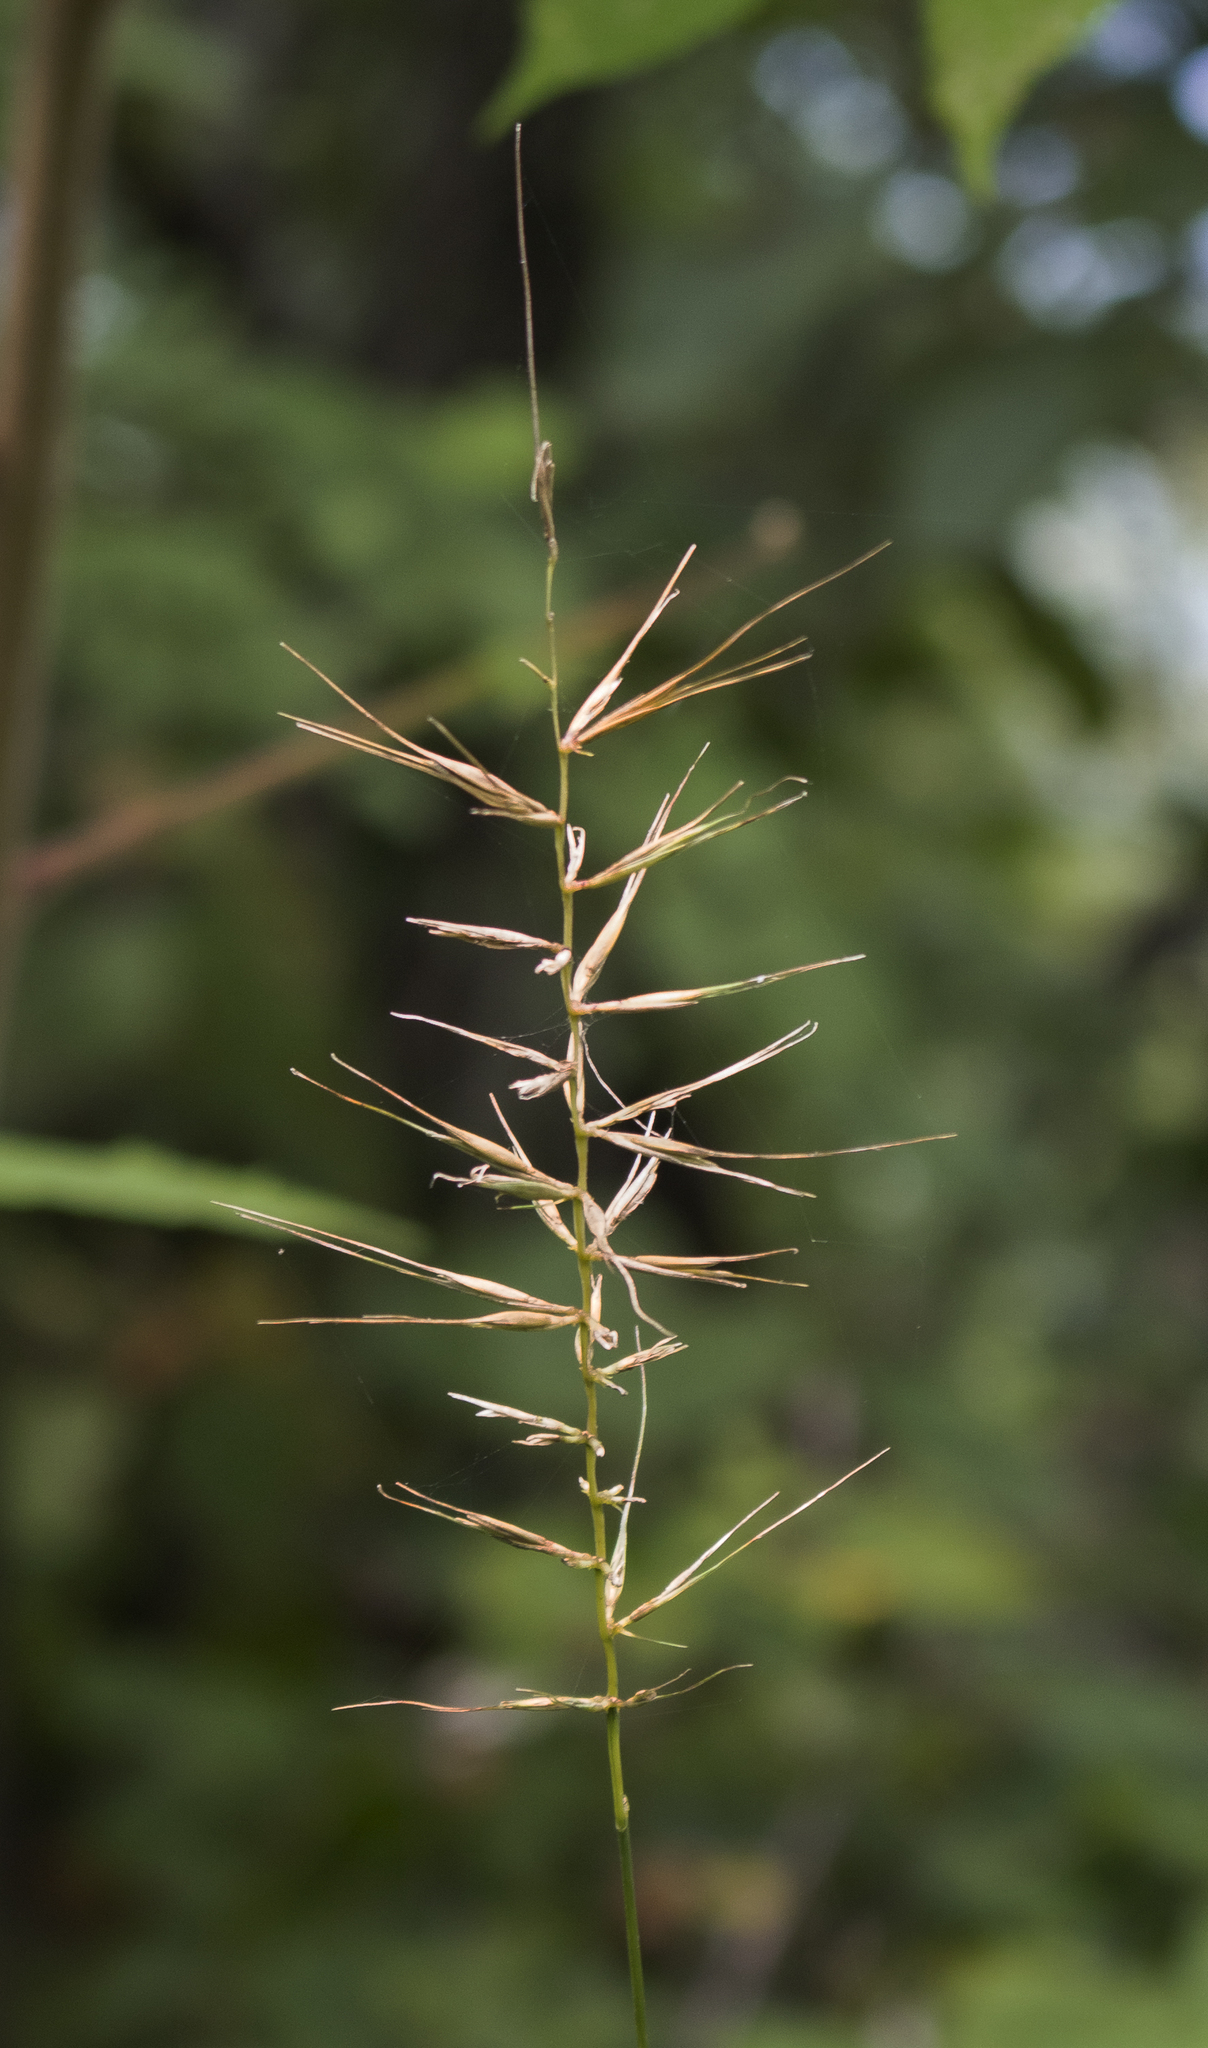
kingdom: Plantae
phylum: Tracheophyta
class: Liliopsida
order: Poales
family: Poaceae
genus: Elymus
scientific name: Elymus hystrix
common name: Bottlebrush grass
